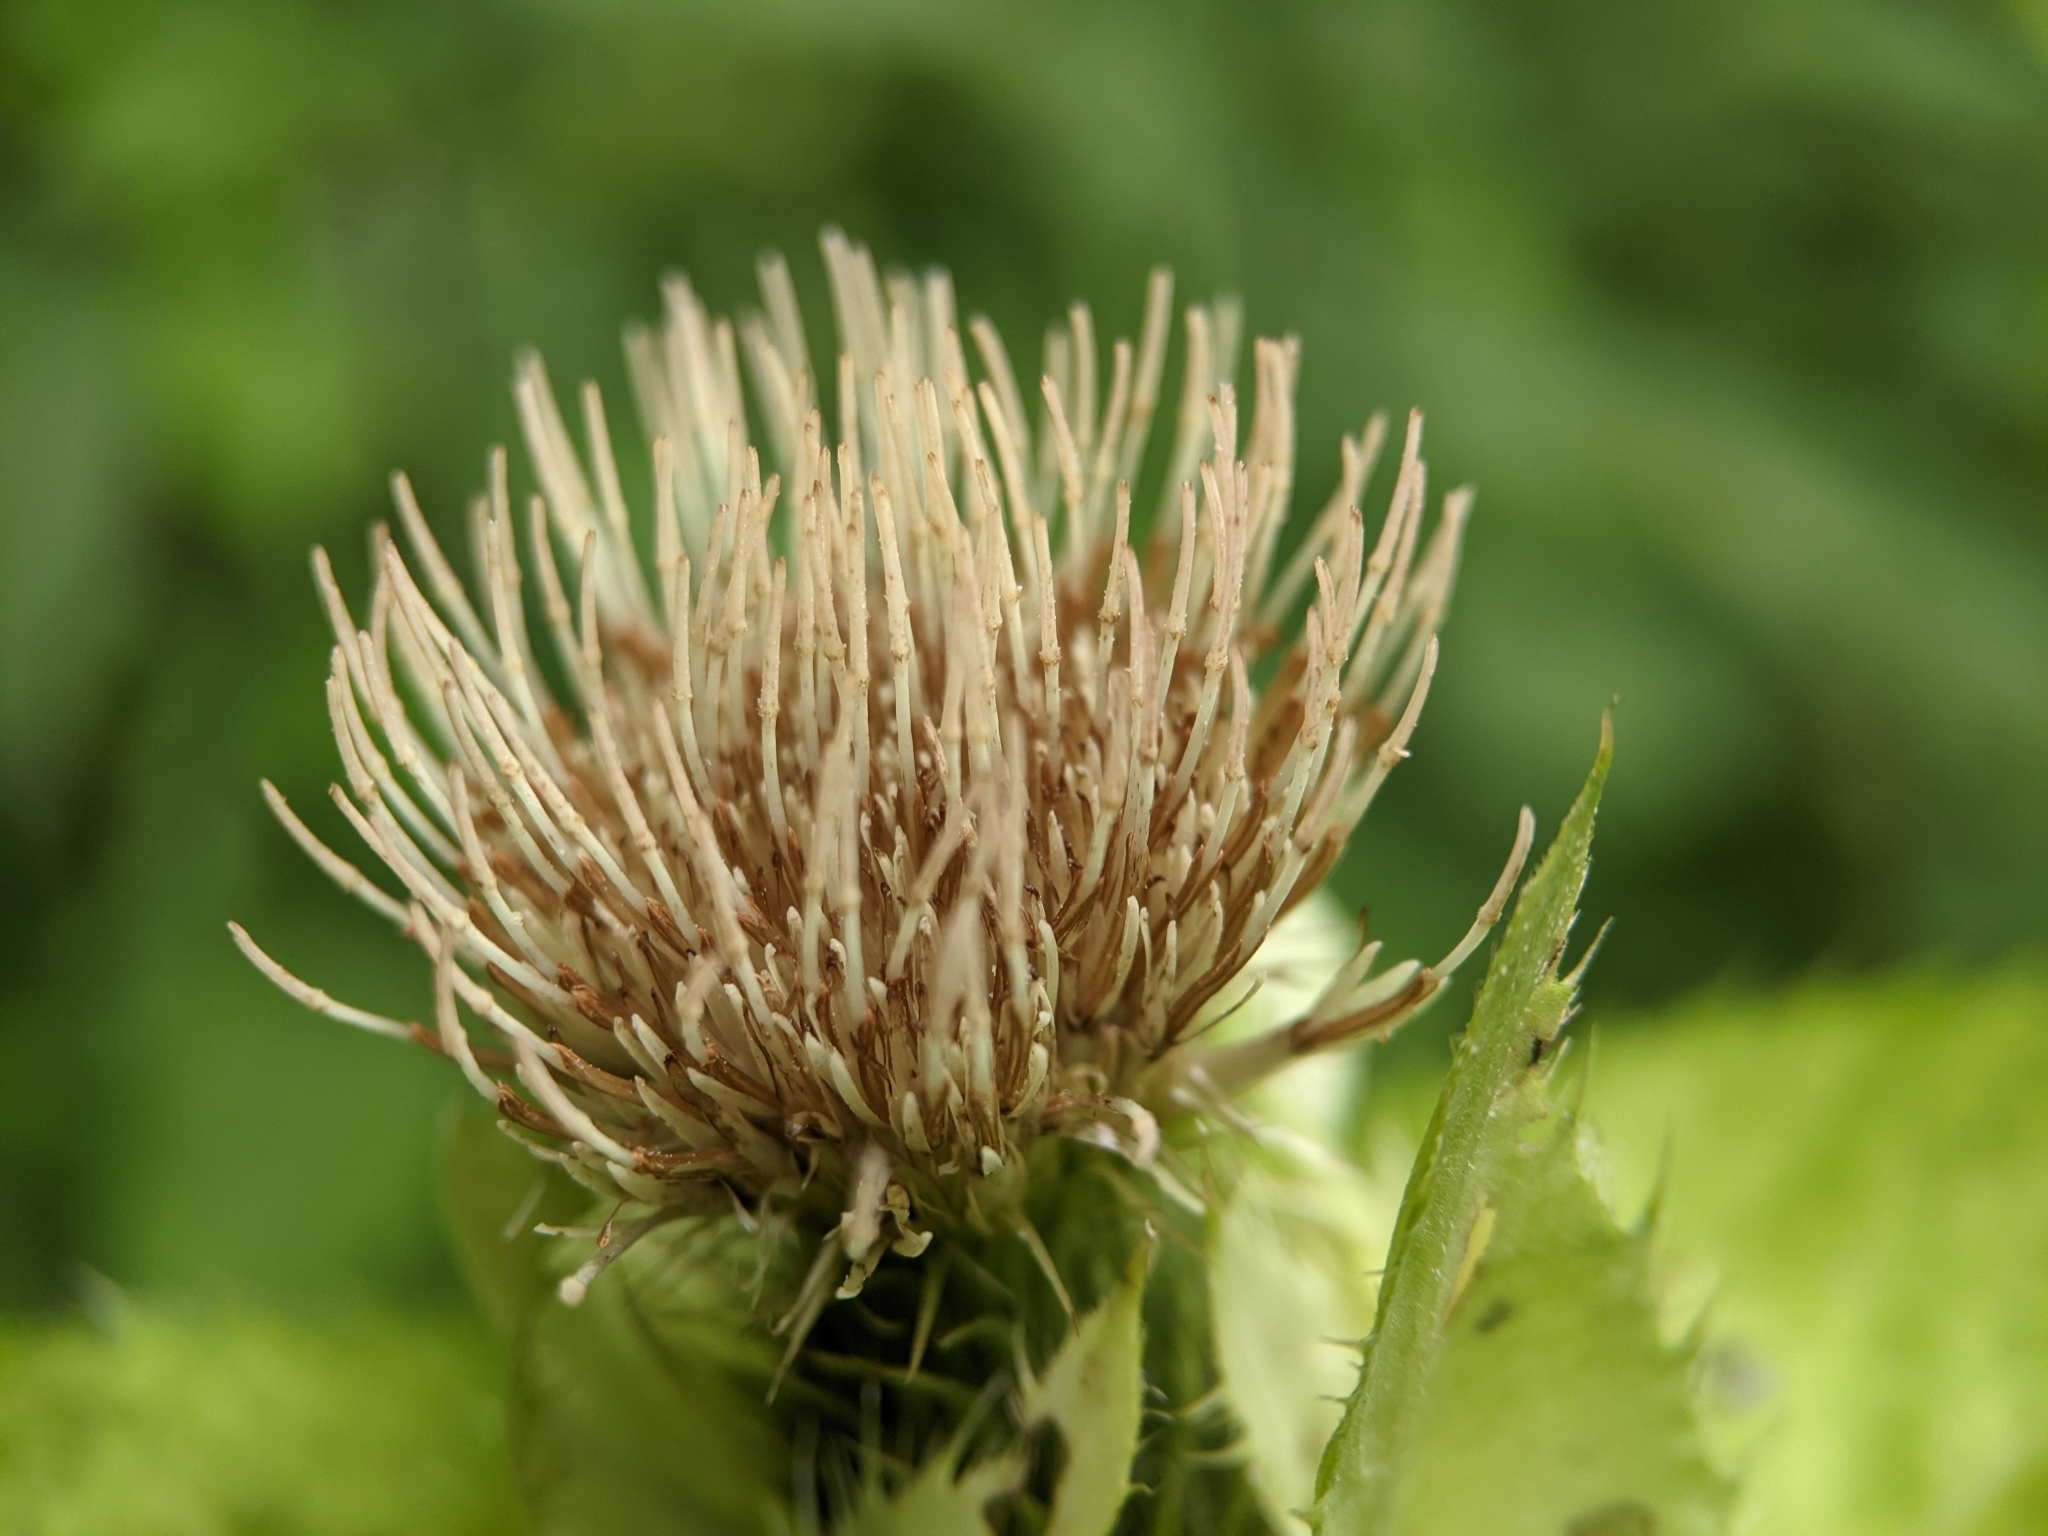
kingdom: Plantae
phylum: Tracheophyta
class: Magnoliopsida
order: Asterales
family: Asteraceae
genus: Cirsium
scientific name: Cirsium oleraceum
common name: Cabbage thistle
